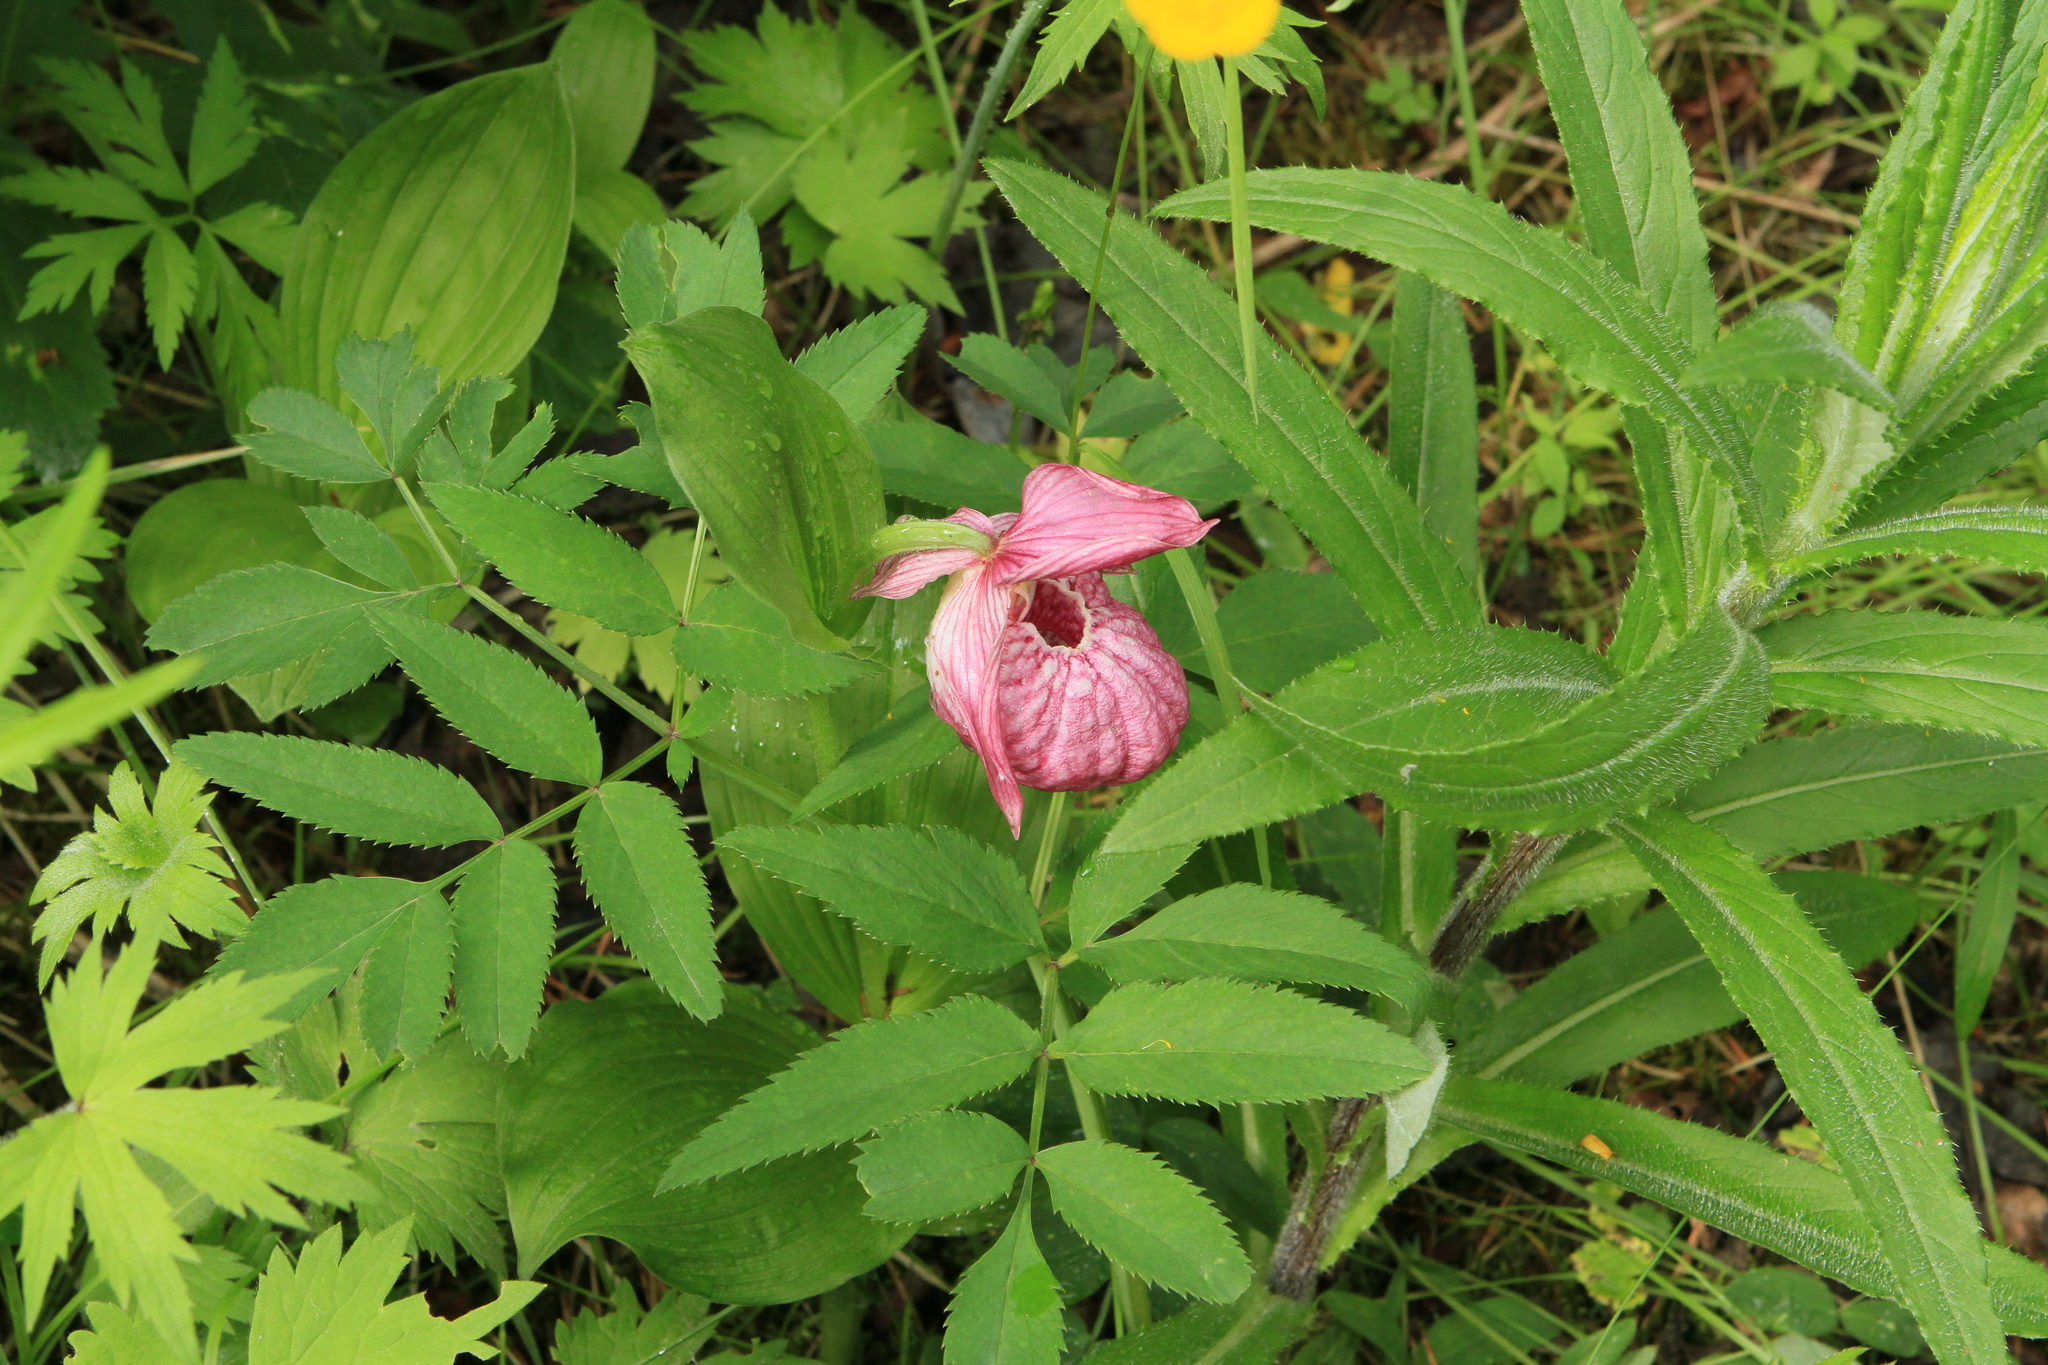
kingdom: Plantae
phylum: Tracheophyta
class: Liliopsida
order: Asparagales
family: Orchidaceae
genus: Cypripedium
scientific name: Cypripedium macranthos
